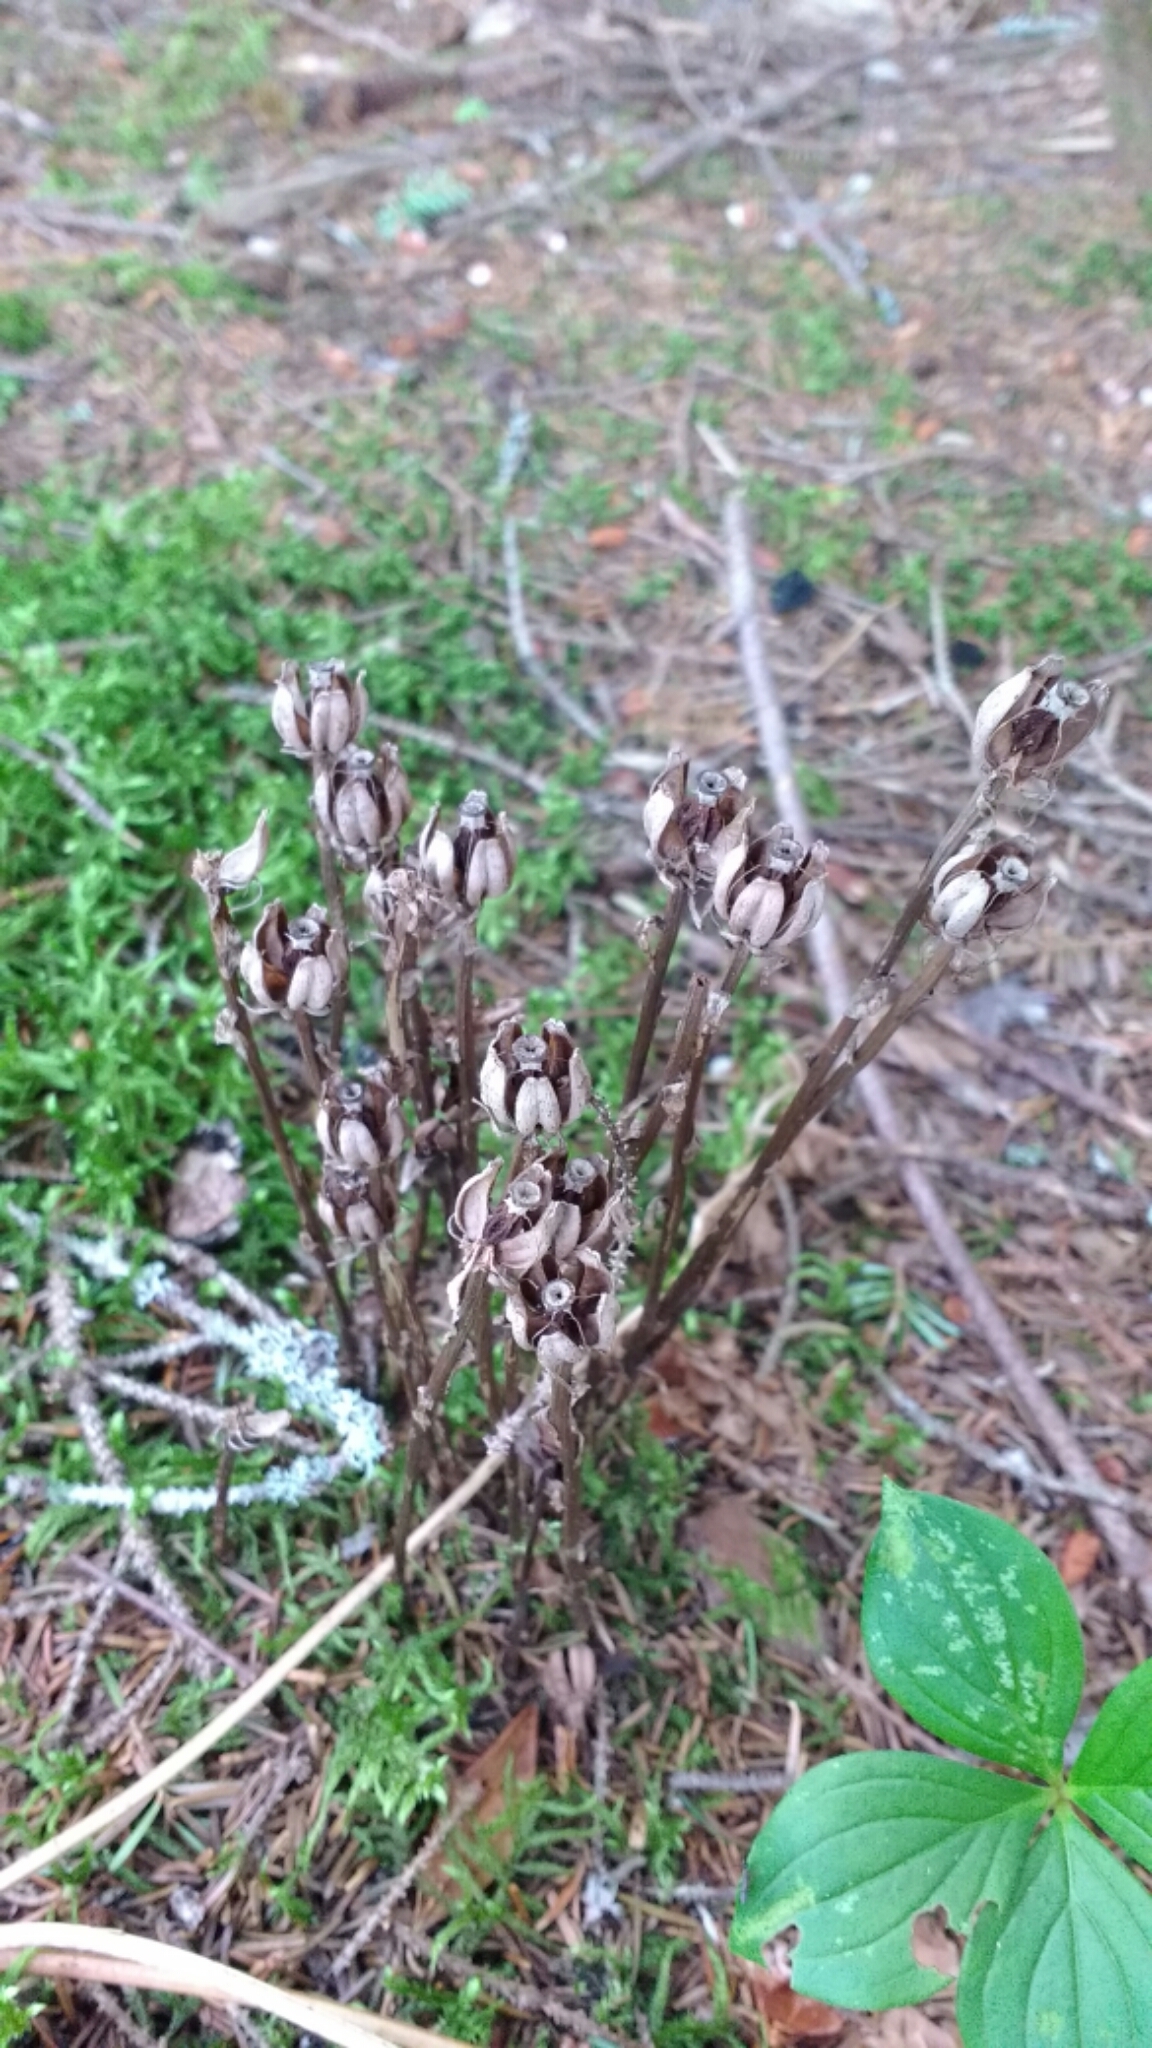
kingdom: Plantae
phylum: Tracheophyta
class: Magnoliopsida
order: Ericales
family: Ericaceae
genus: Monotropa
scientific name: Monotropa uniflora
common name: Convulsion root
